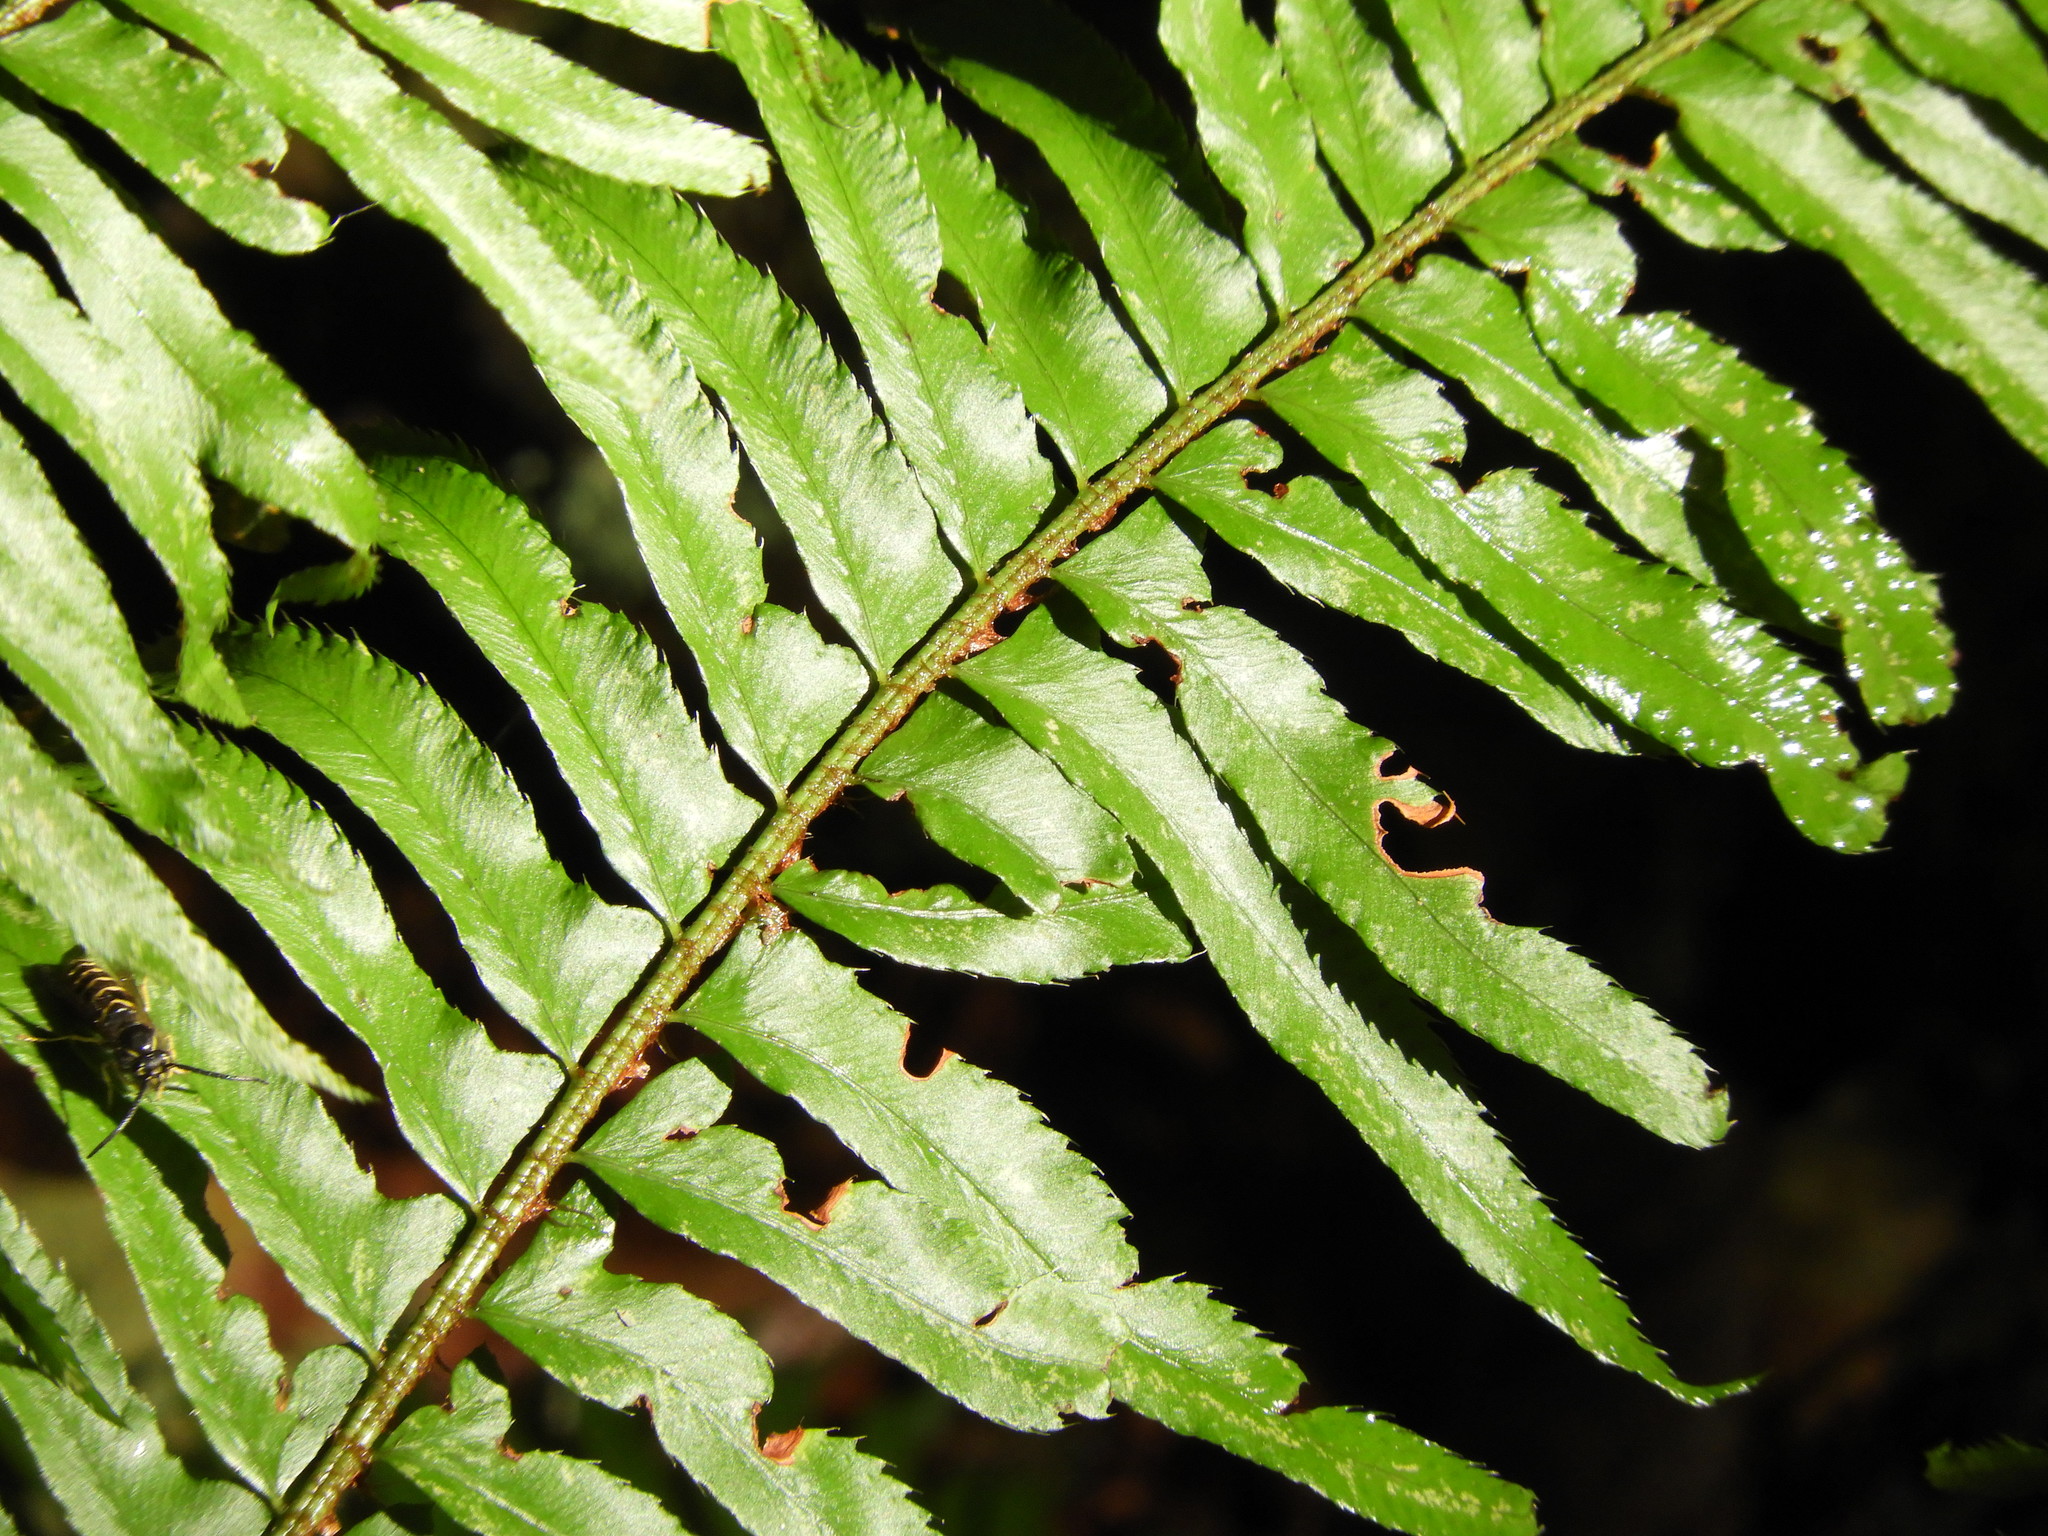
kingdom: Plantae
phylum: Tracheophyta
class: Polypodiopsida
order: Polypodiales
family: Dryopteridaceae
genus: Polystichum
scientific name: Polystichum munitum
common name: Western sword-fern
